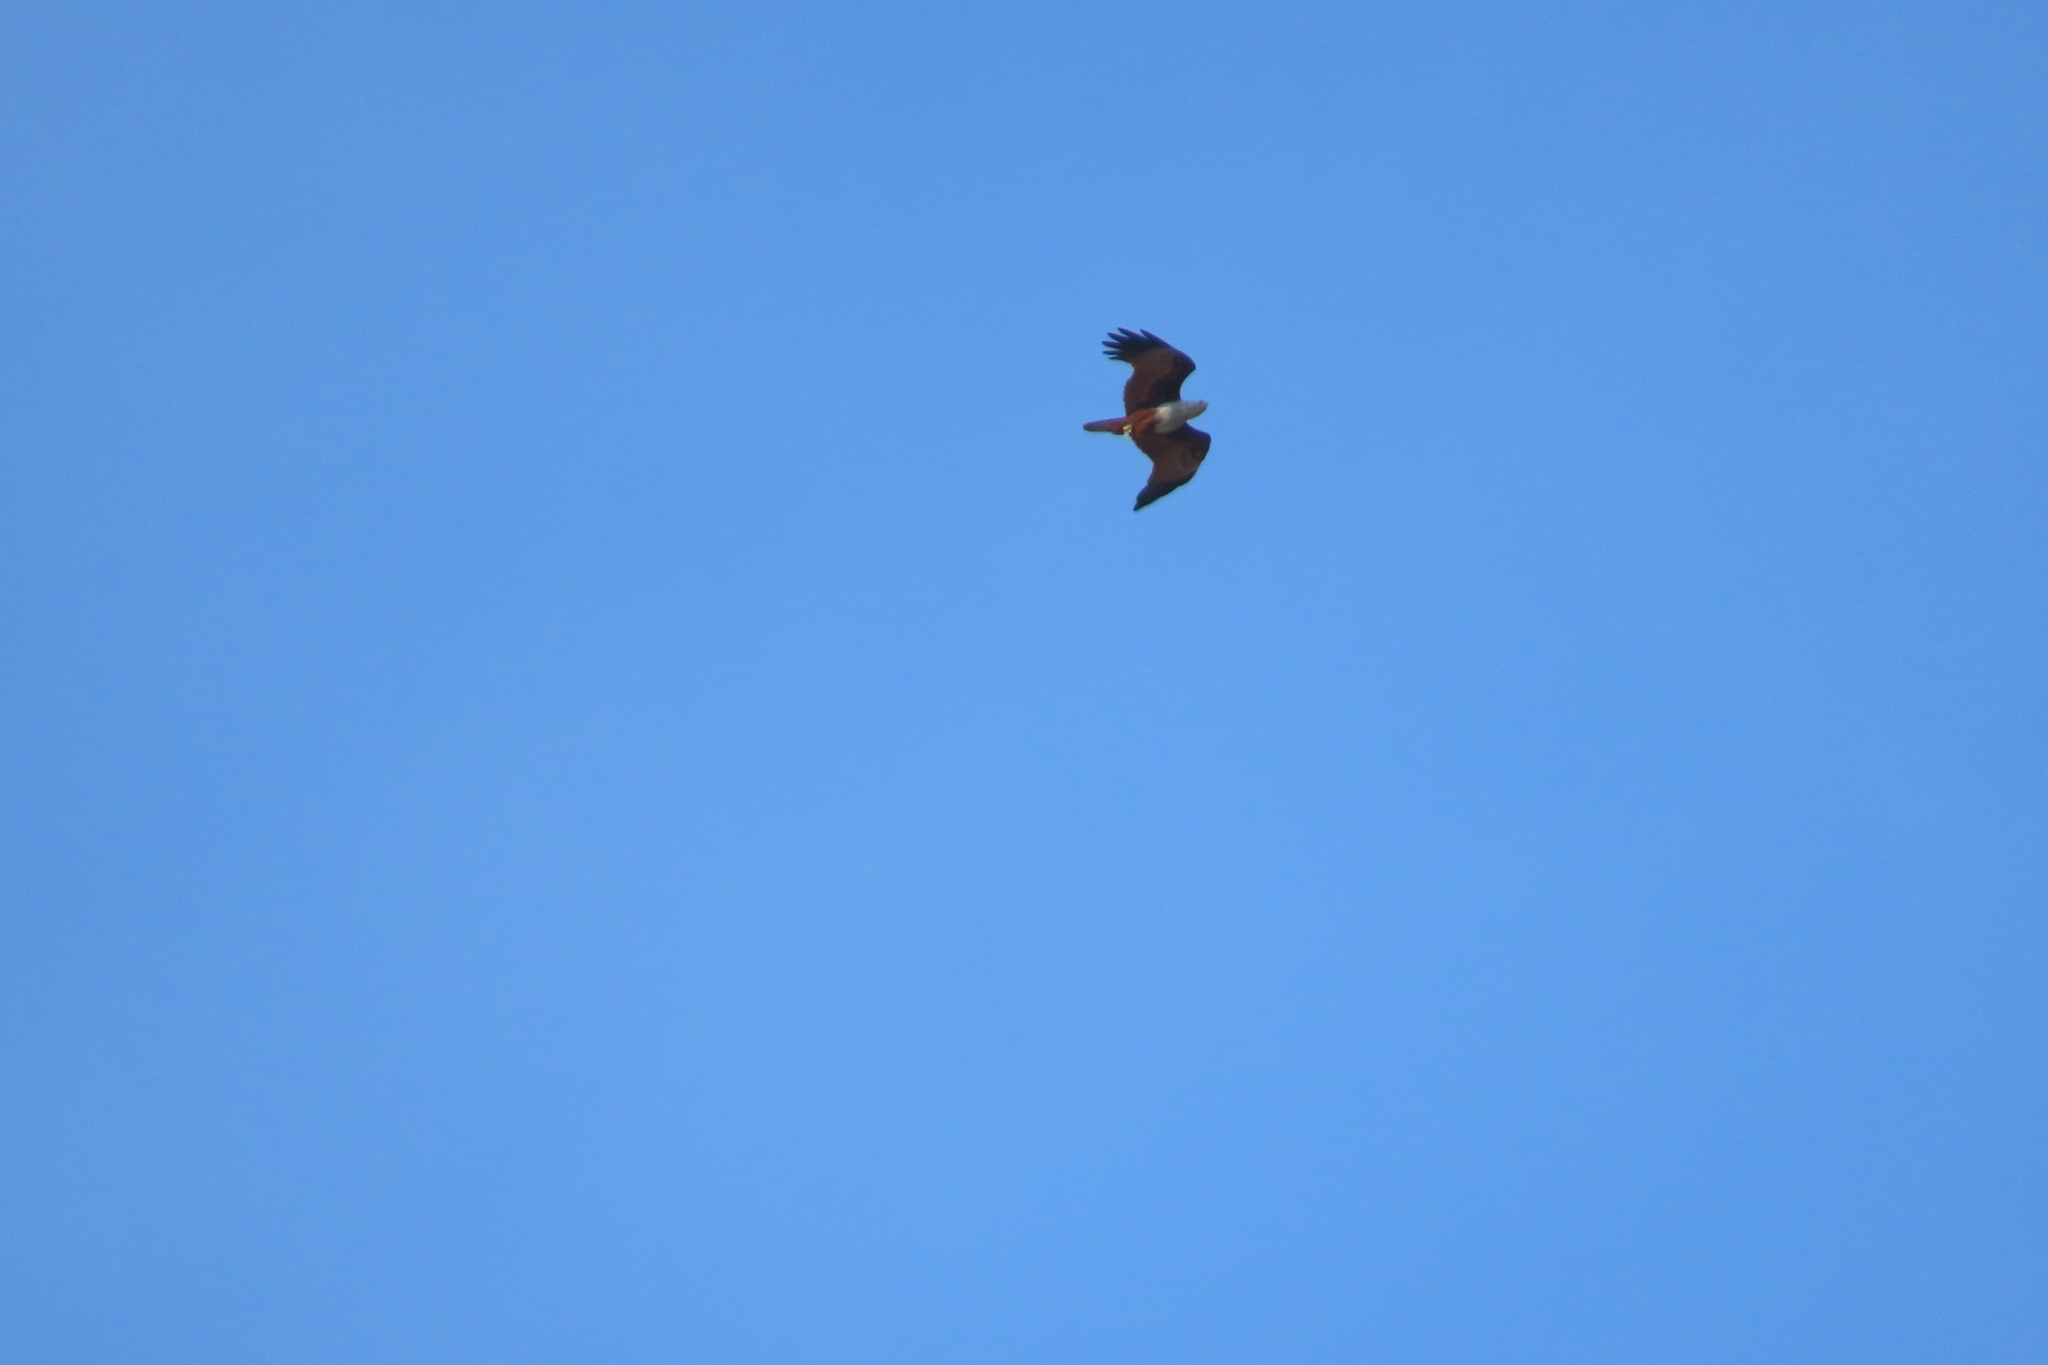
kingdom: Animalia
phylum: Chordata
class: Aves
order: Accipitriformes
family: Accipitridae
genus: Haliastur
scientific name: Haliastur indus
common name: Brahminy kite
